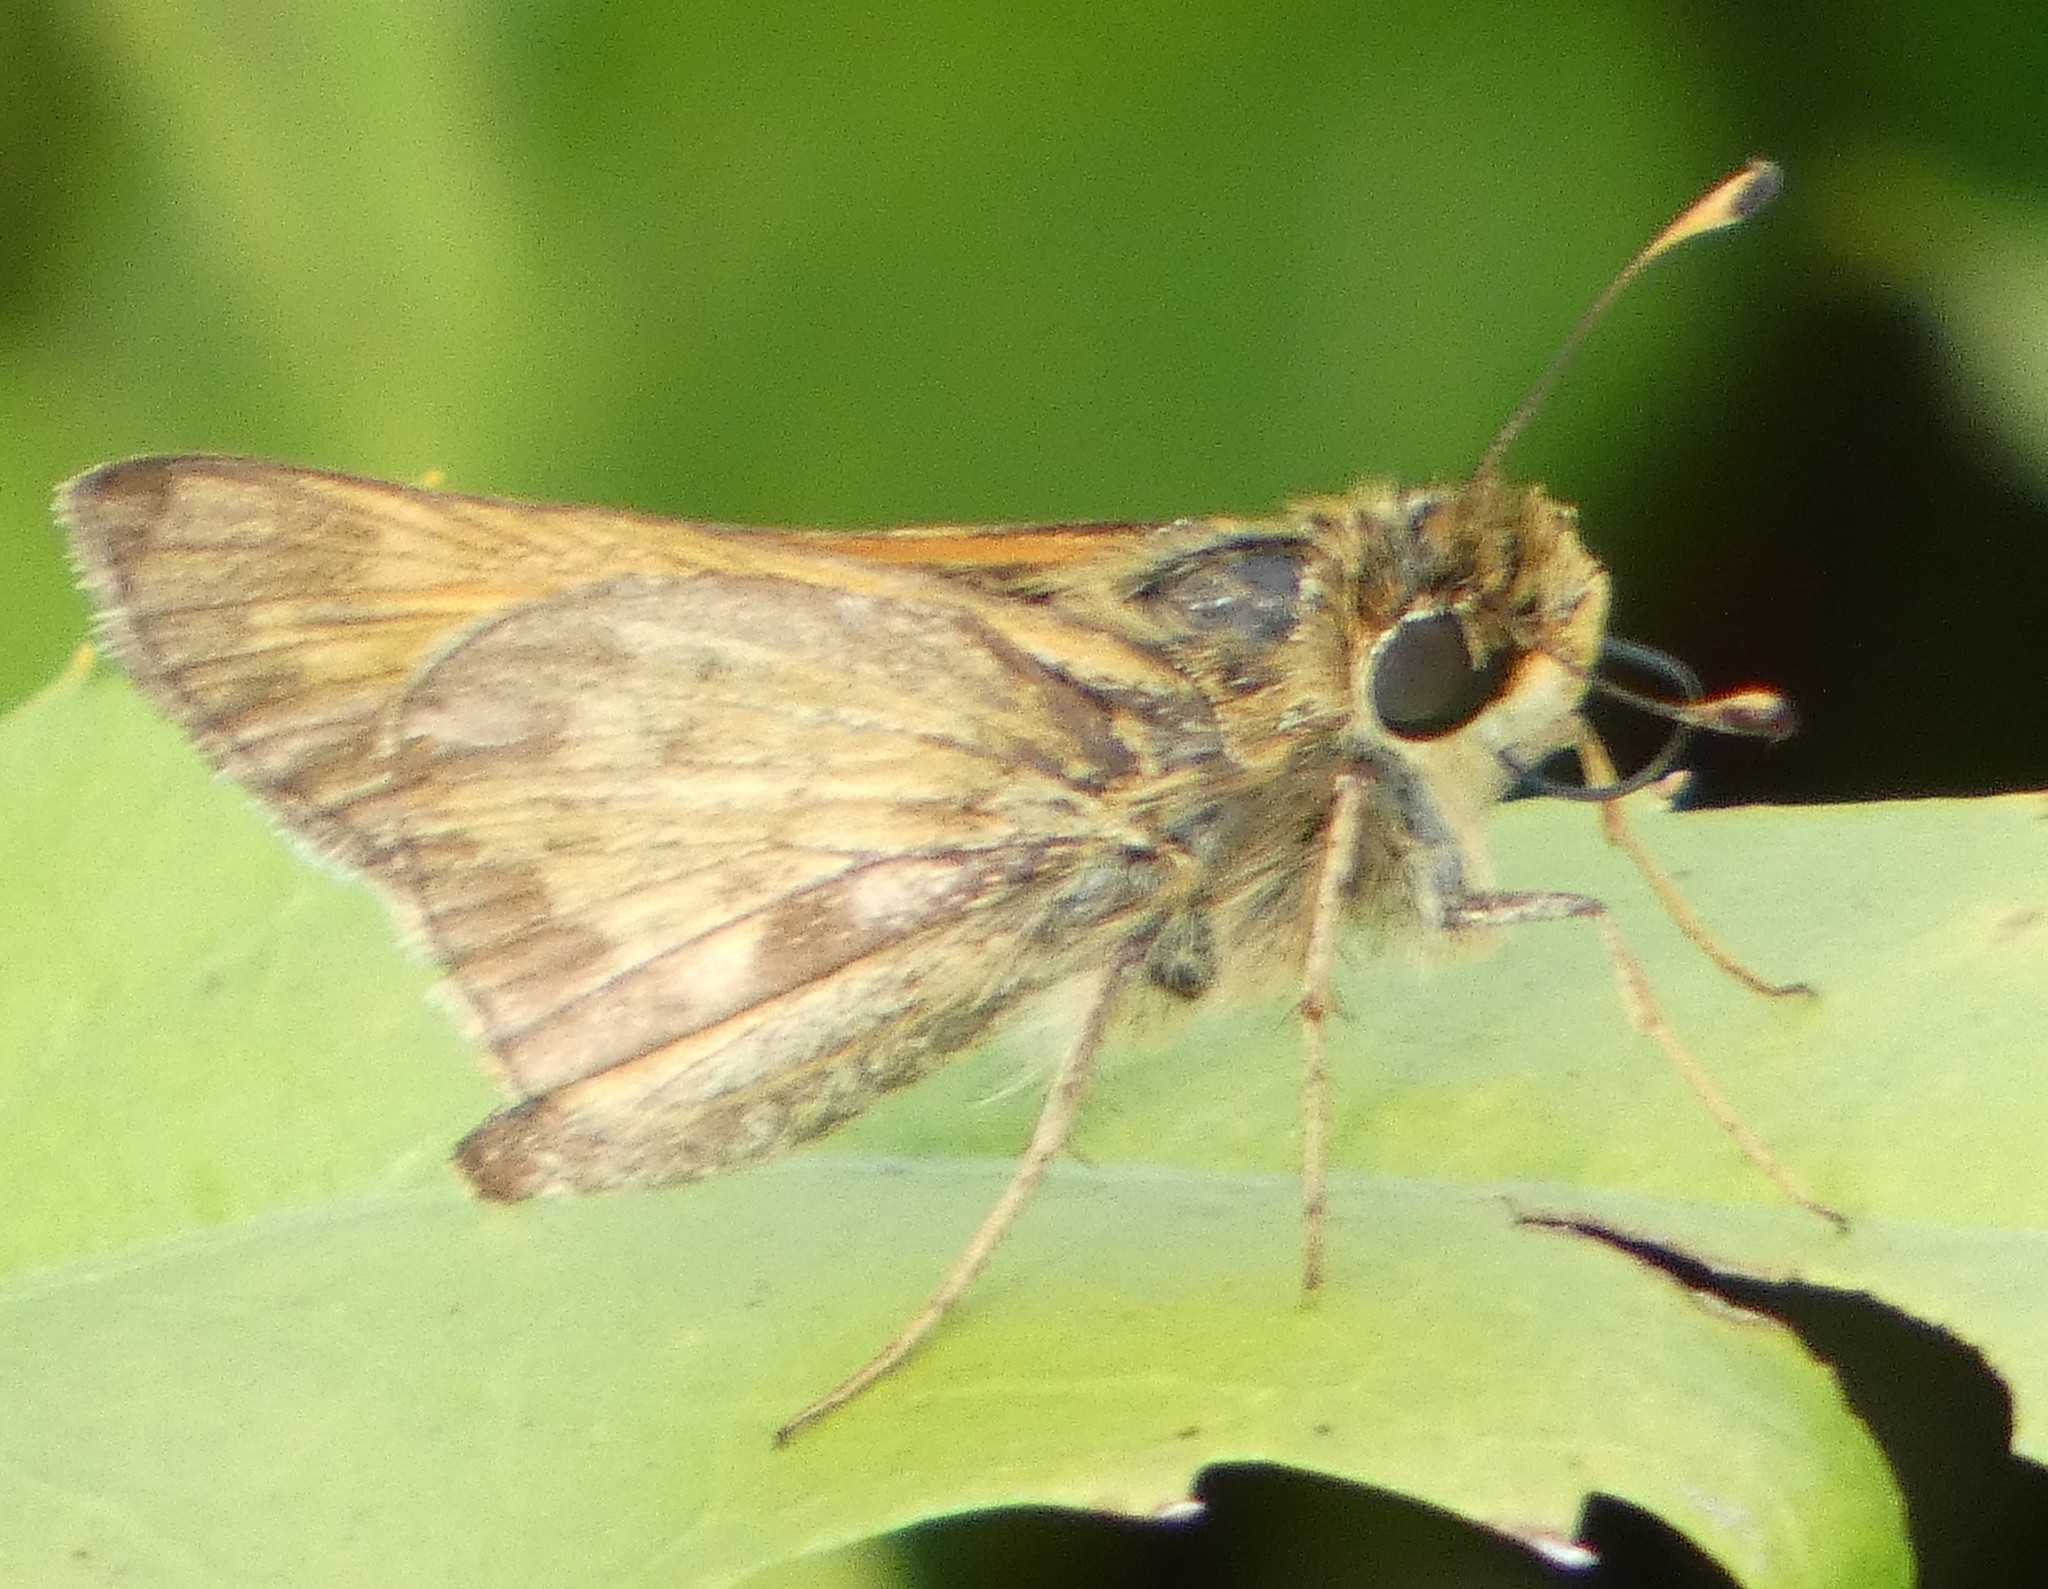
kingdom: Animalia
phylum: Arthropoda
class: Insecta
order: Lepidoptera
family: Hesperiidae
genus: Atalopedes
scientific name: Atalopedes
